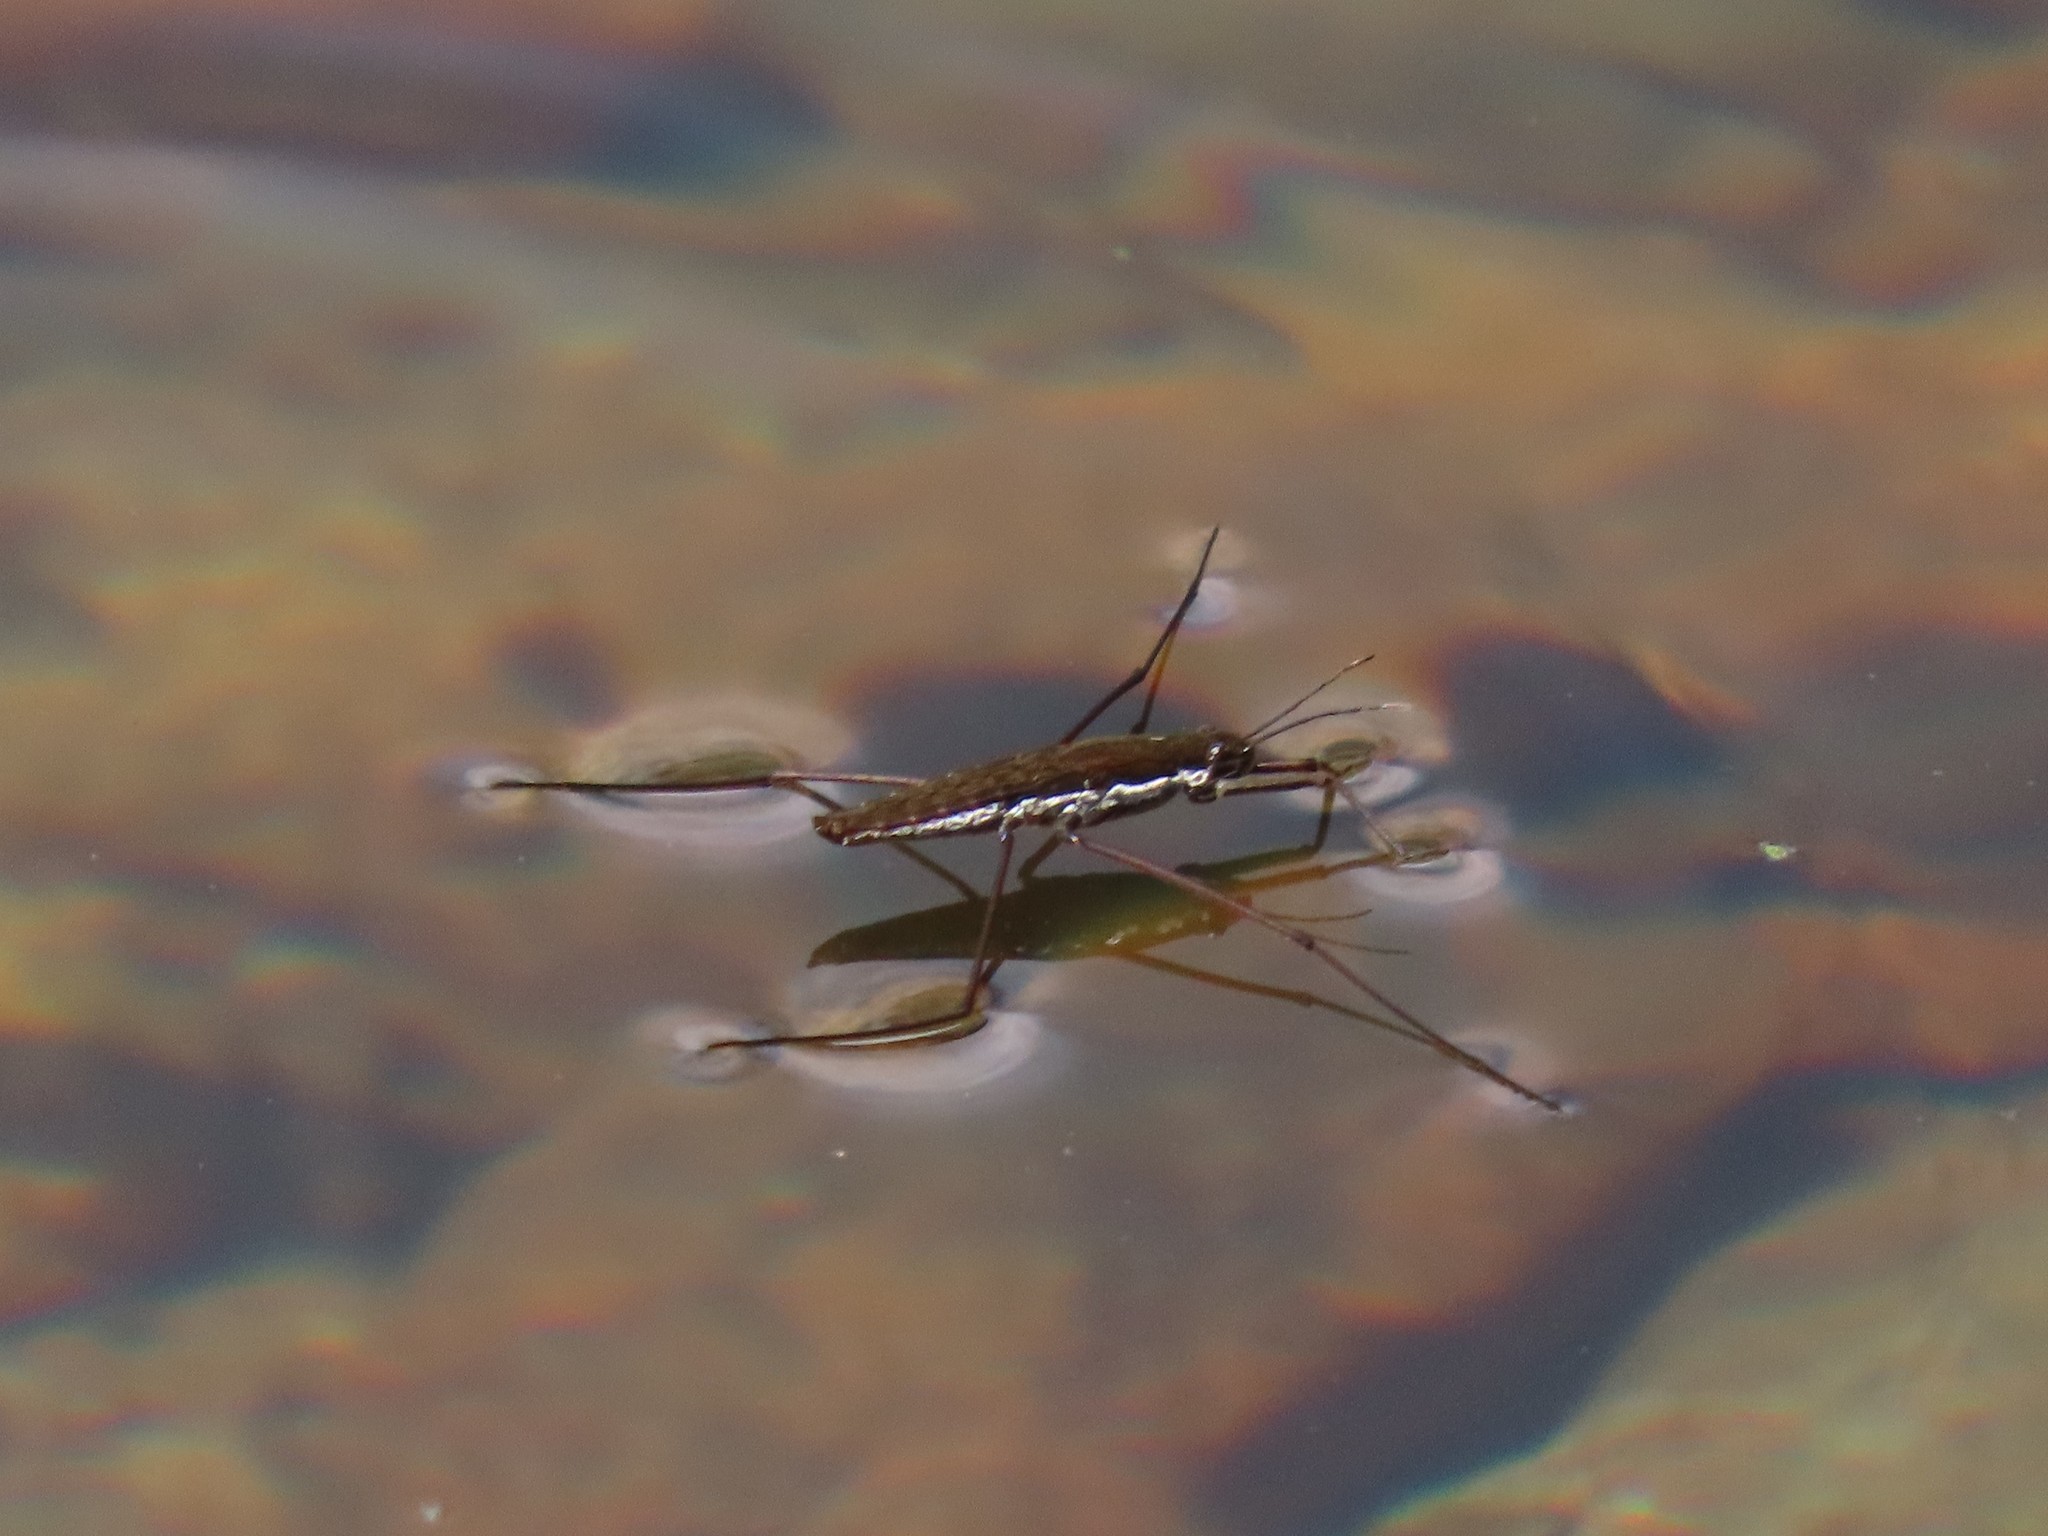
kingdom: Animalia
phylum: Arthropoda
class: Insecta
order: Hemiptera
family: Gerridae
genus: Aquarius
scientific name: Aquarius remigis
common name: Common water strider
